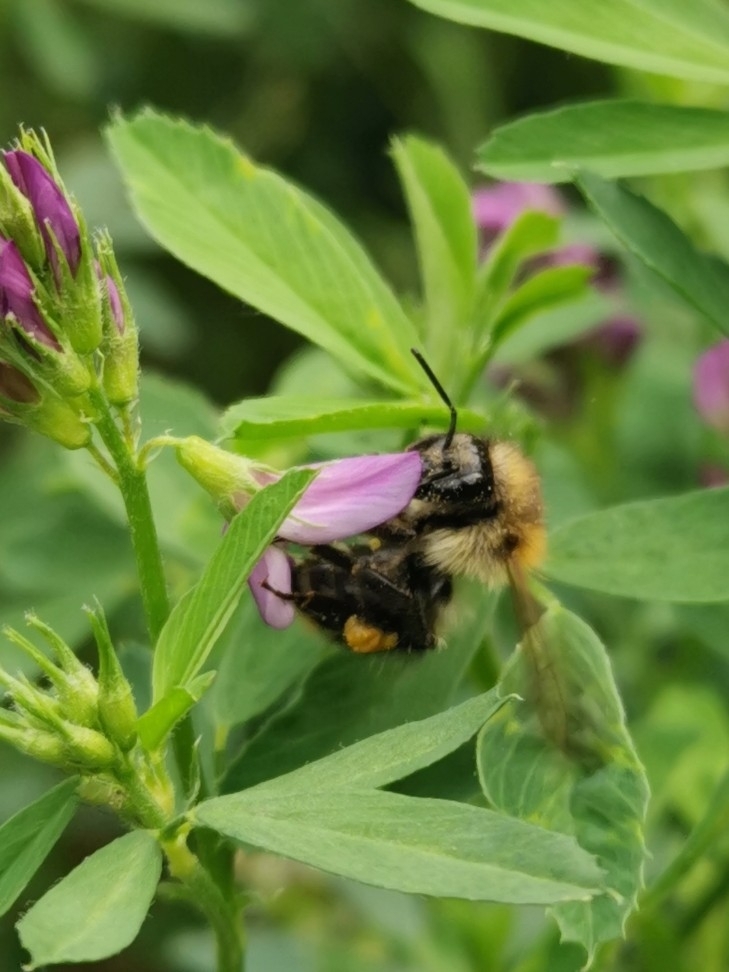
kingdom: Animalia
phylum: Arthropoda
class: Insecta
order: Hymenoptera
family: Apidae
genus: Bombus
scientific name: Bombus pascuorum
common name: Common carder bee
